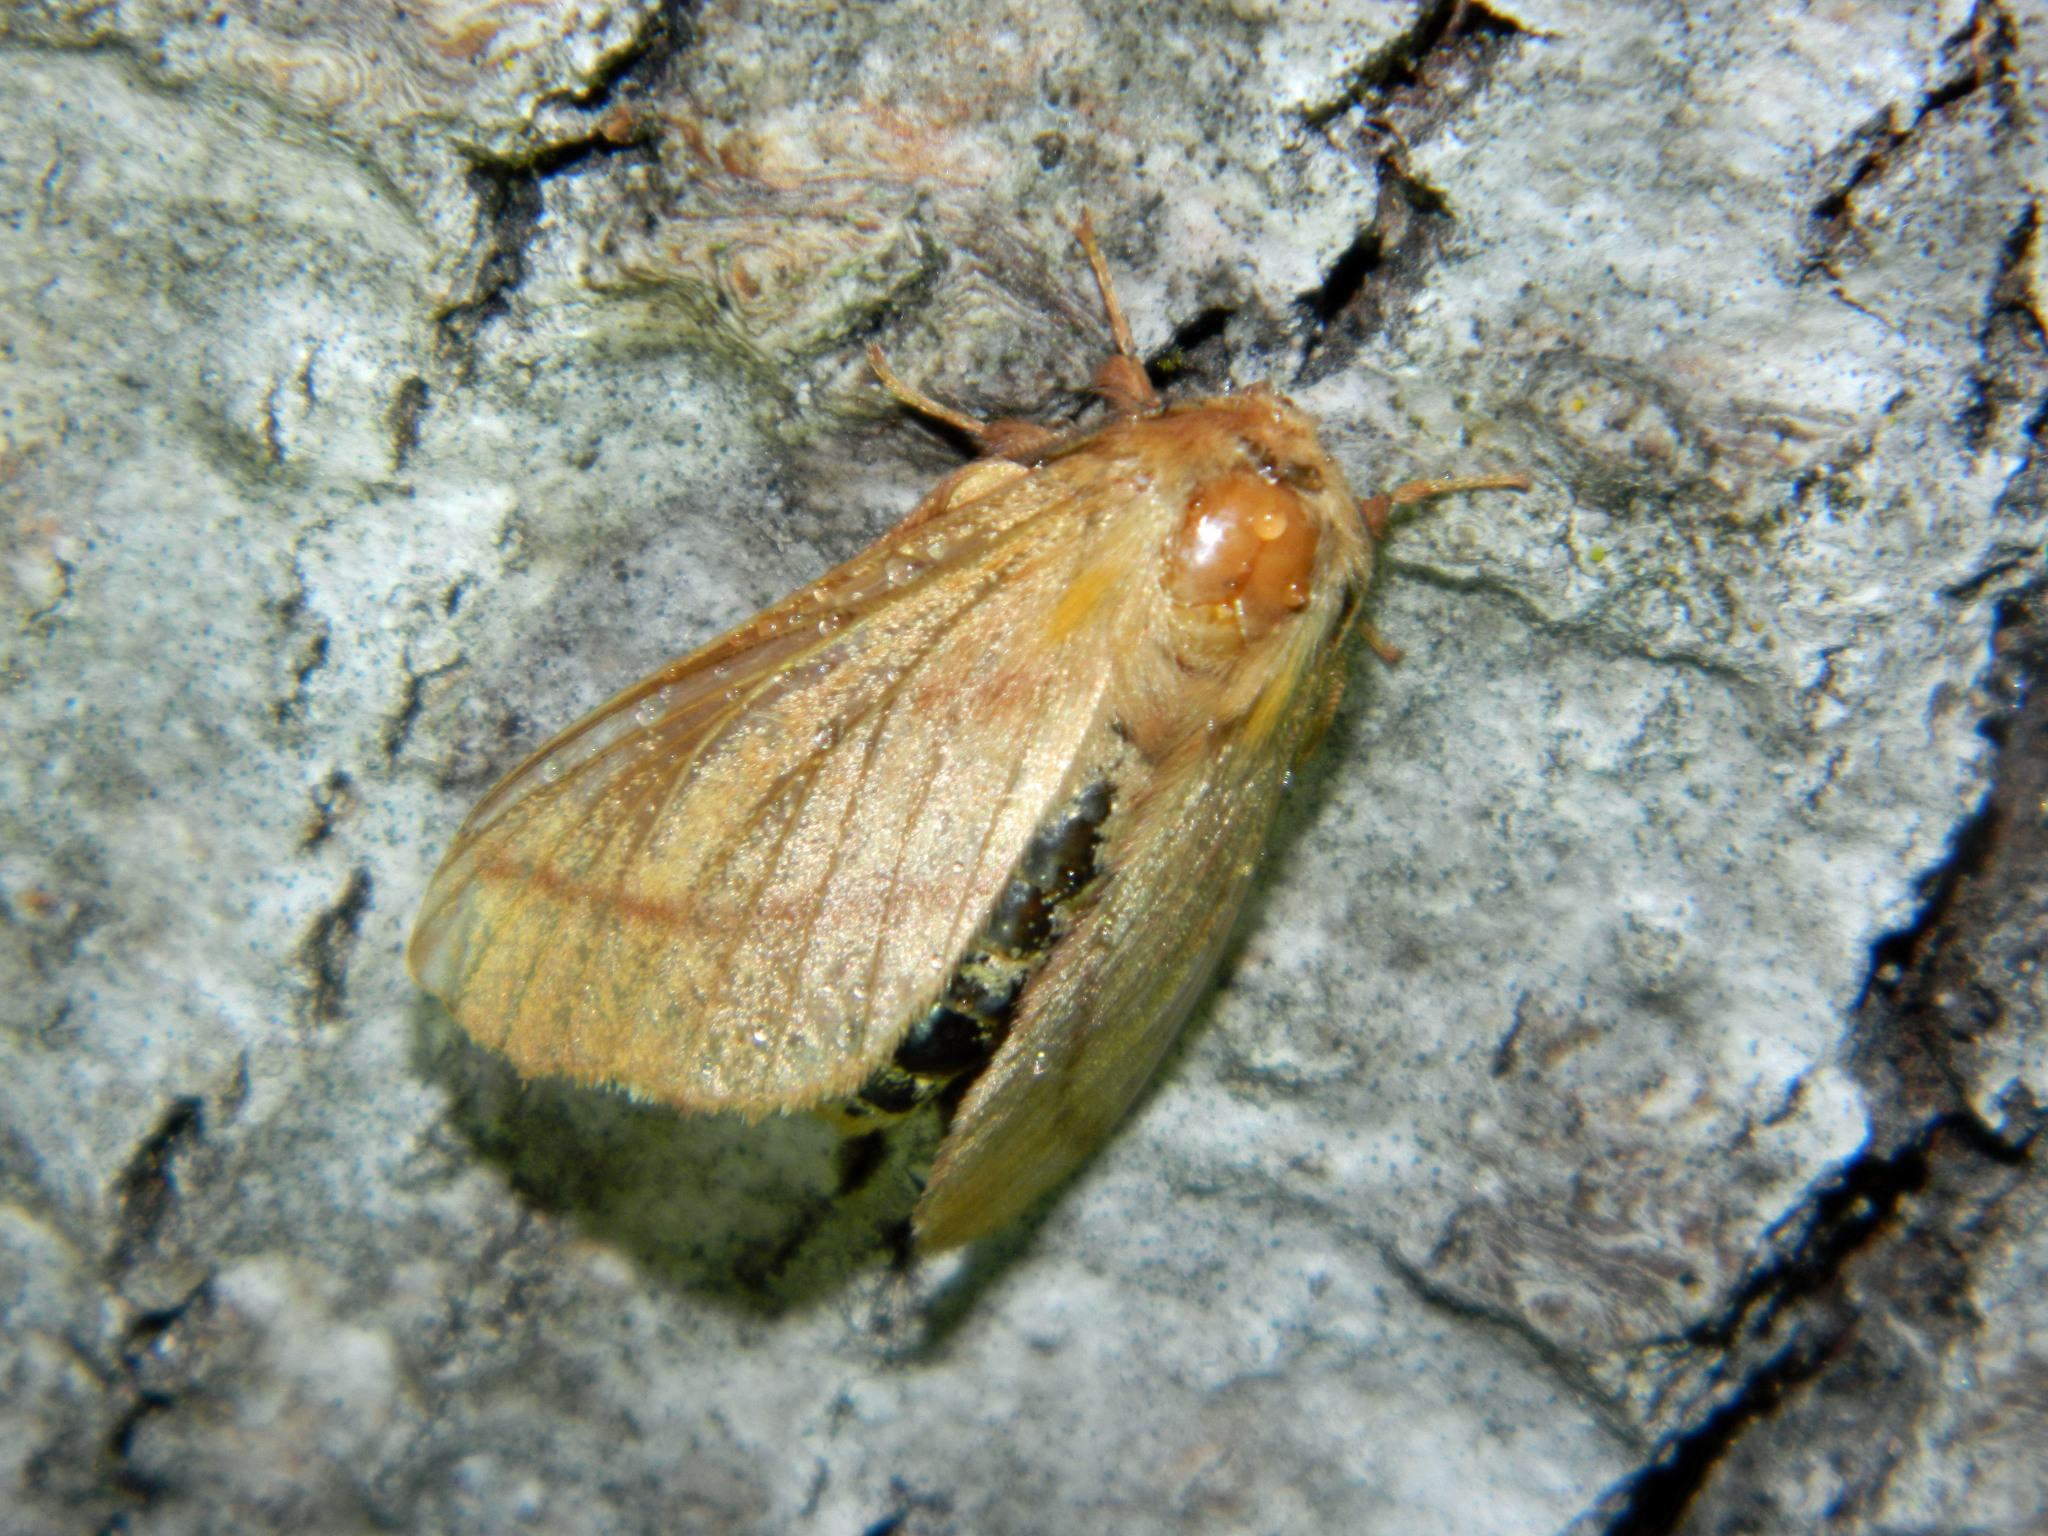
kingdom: Animalia
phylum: Arthropoda
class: Insecta
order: Lepidoptera
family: Lasiocampidae
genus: Malacosoma
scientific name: Malacosoma disstria
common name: Forest tent caterpillar
